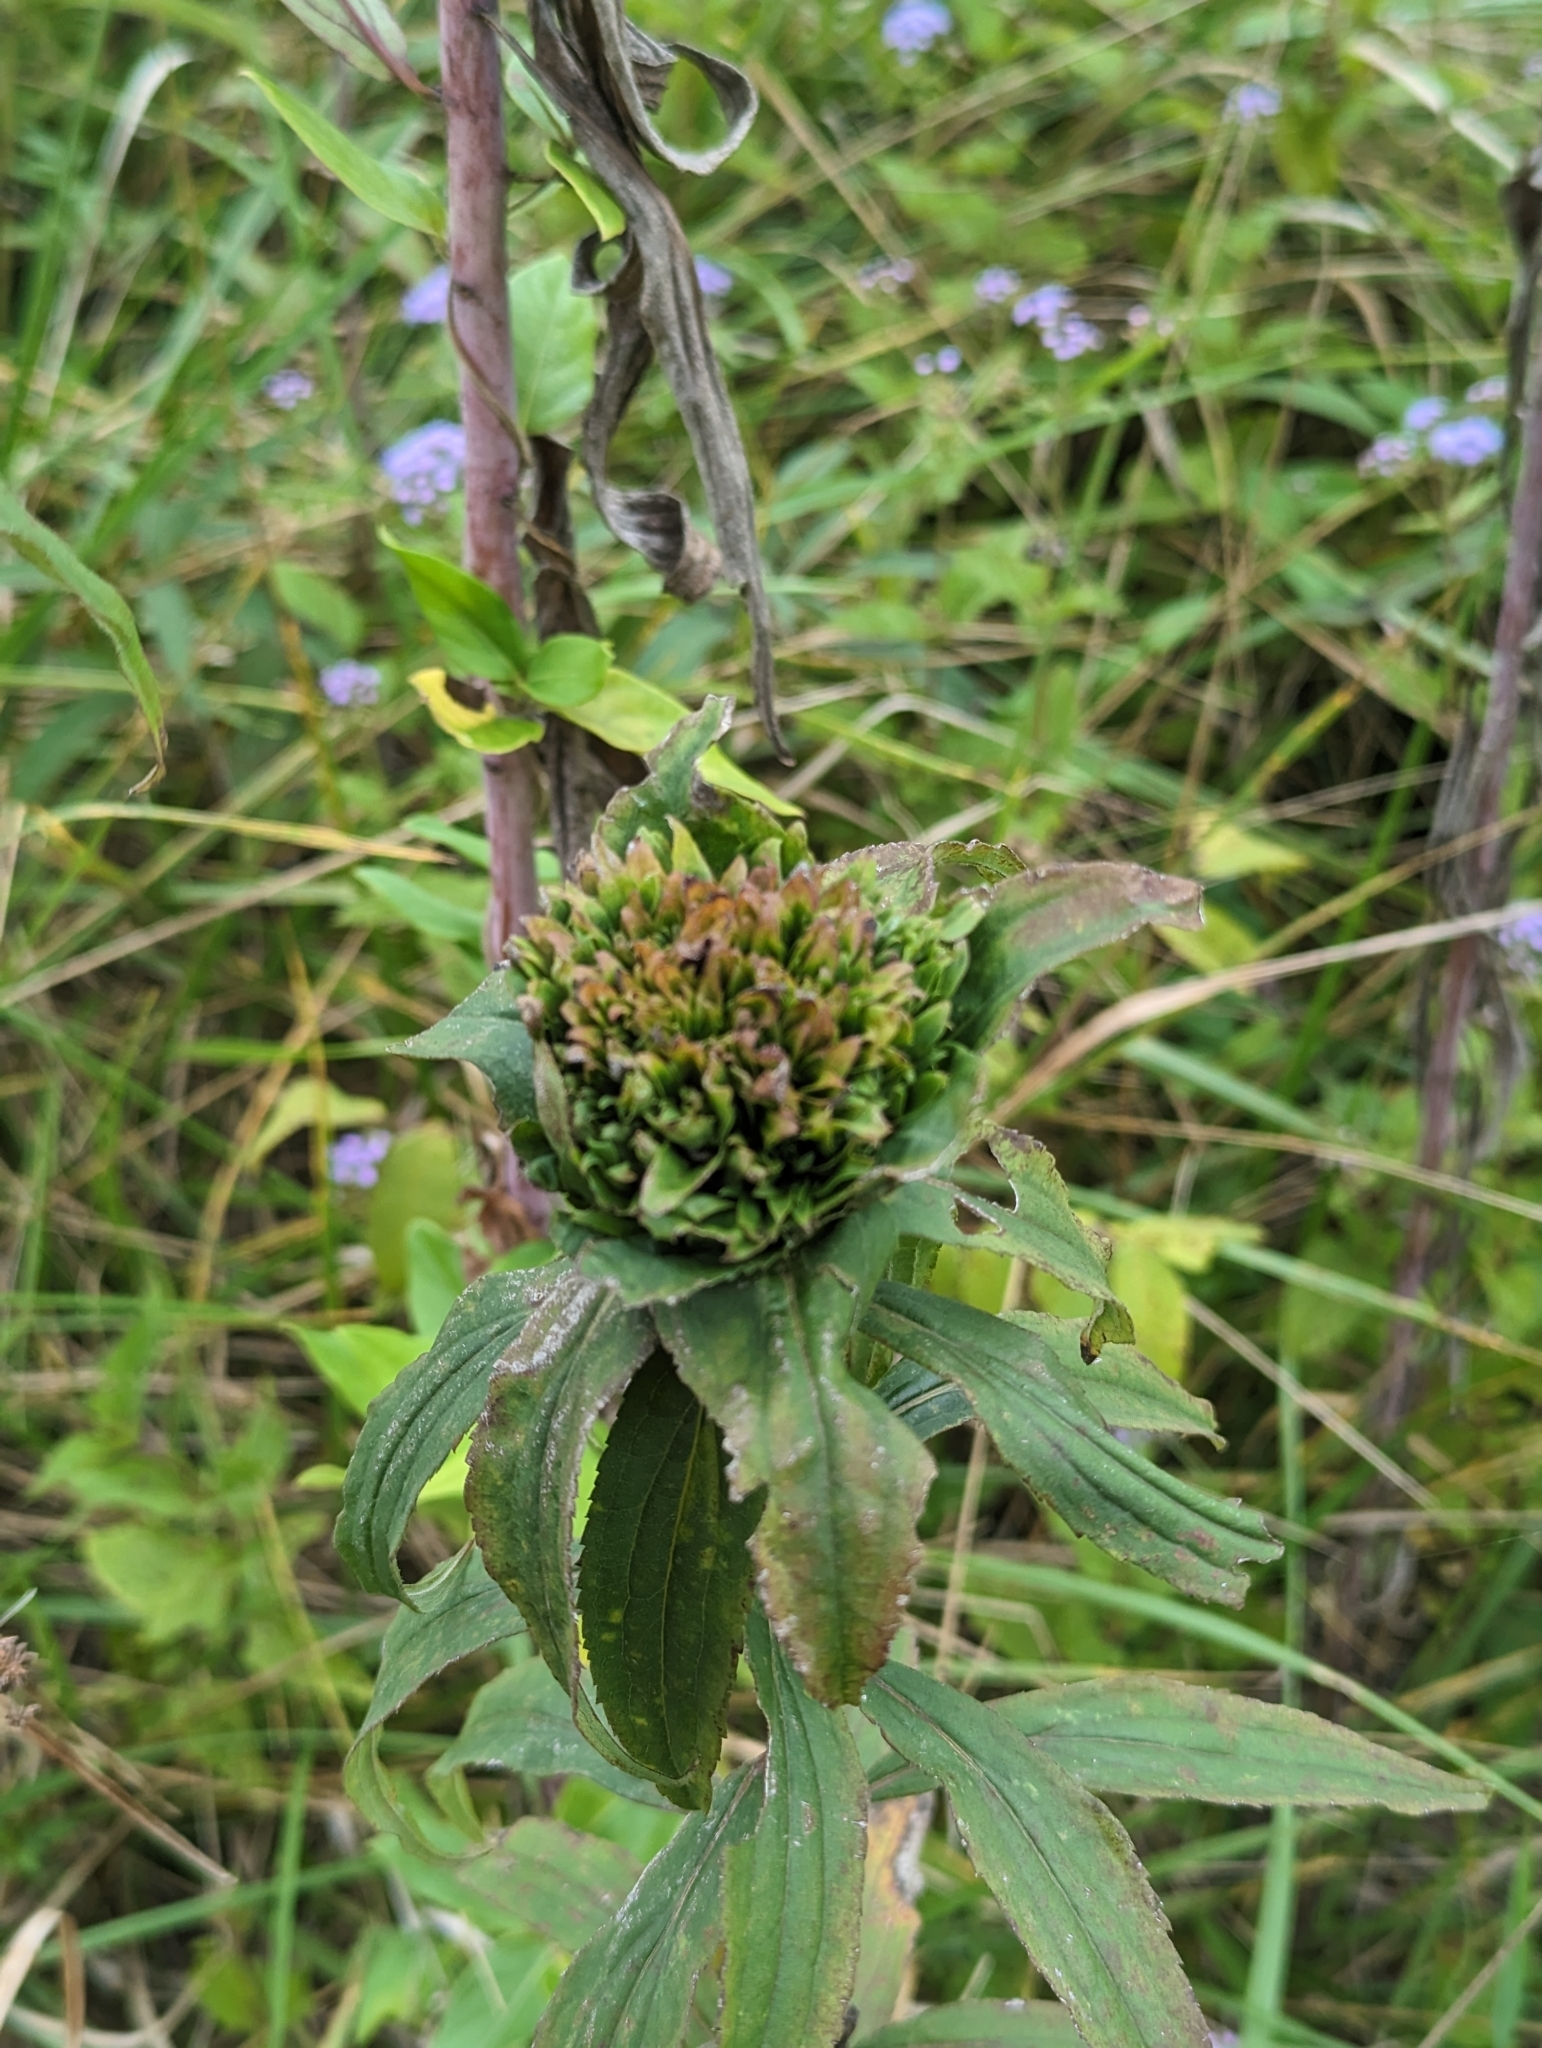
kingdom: Animalia
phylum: Arthropoda
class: Insecta
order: Diptera
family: Cecidomyiidae
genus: Rhopalomyia
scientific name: Rhopalomyia capitata
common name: Giant goldenrod bunch gall midge
